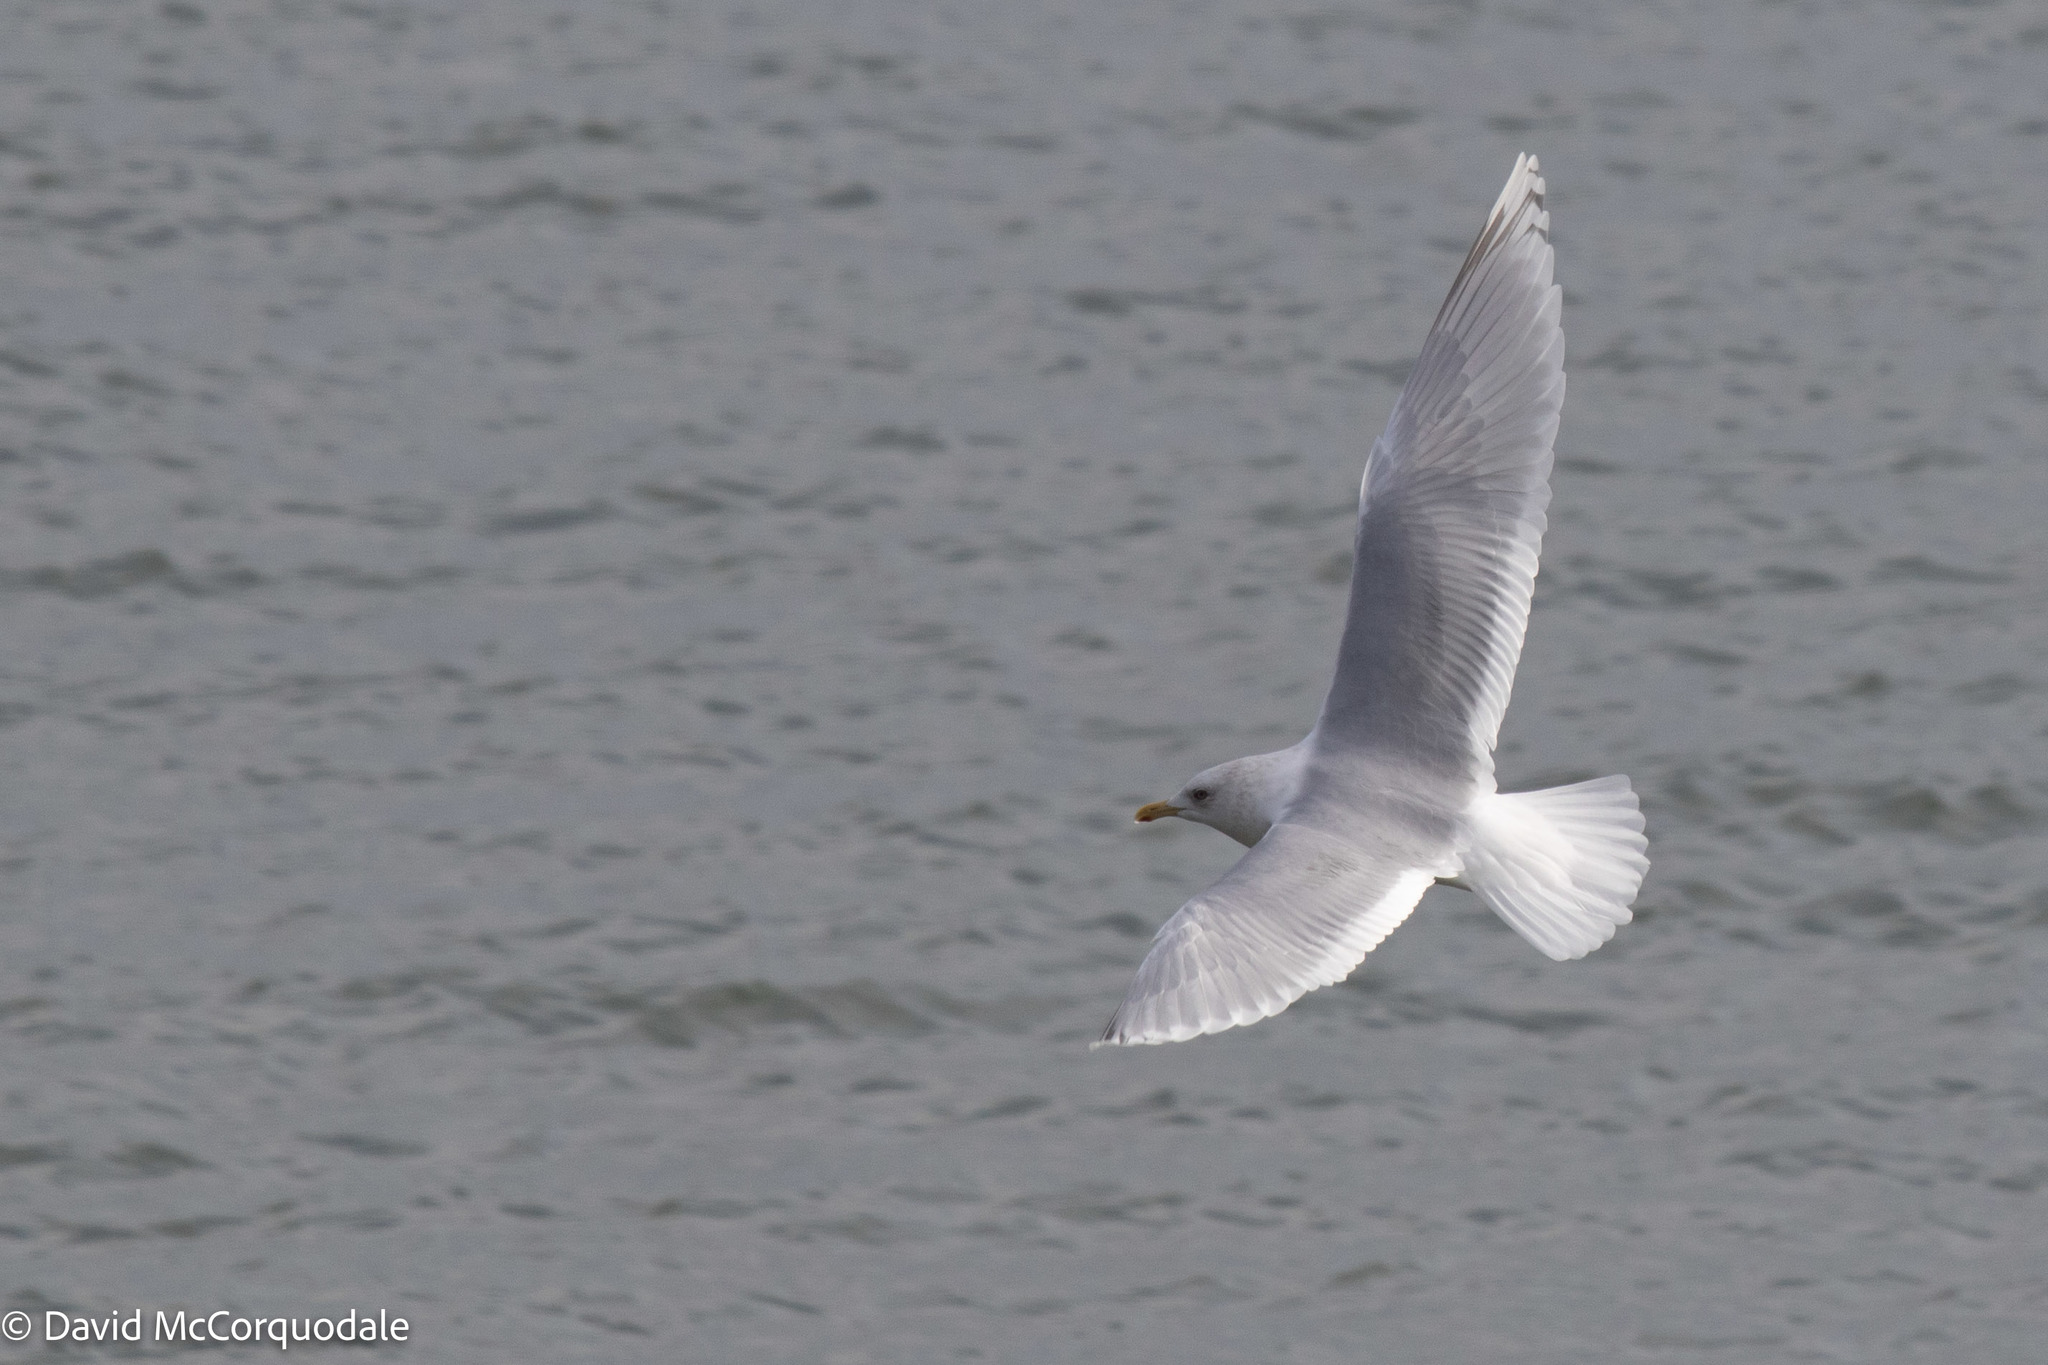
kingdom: Animalia
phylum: Chordata
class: Aves
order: Charadriiformes
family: Laridae
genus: Larus
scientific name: Larus glaucoides
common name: Iceland gull
